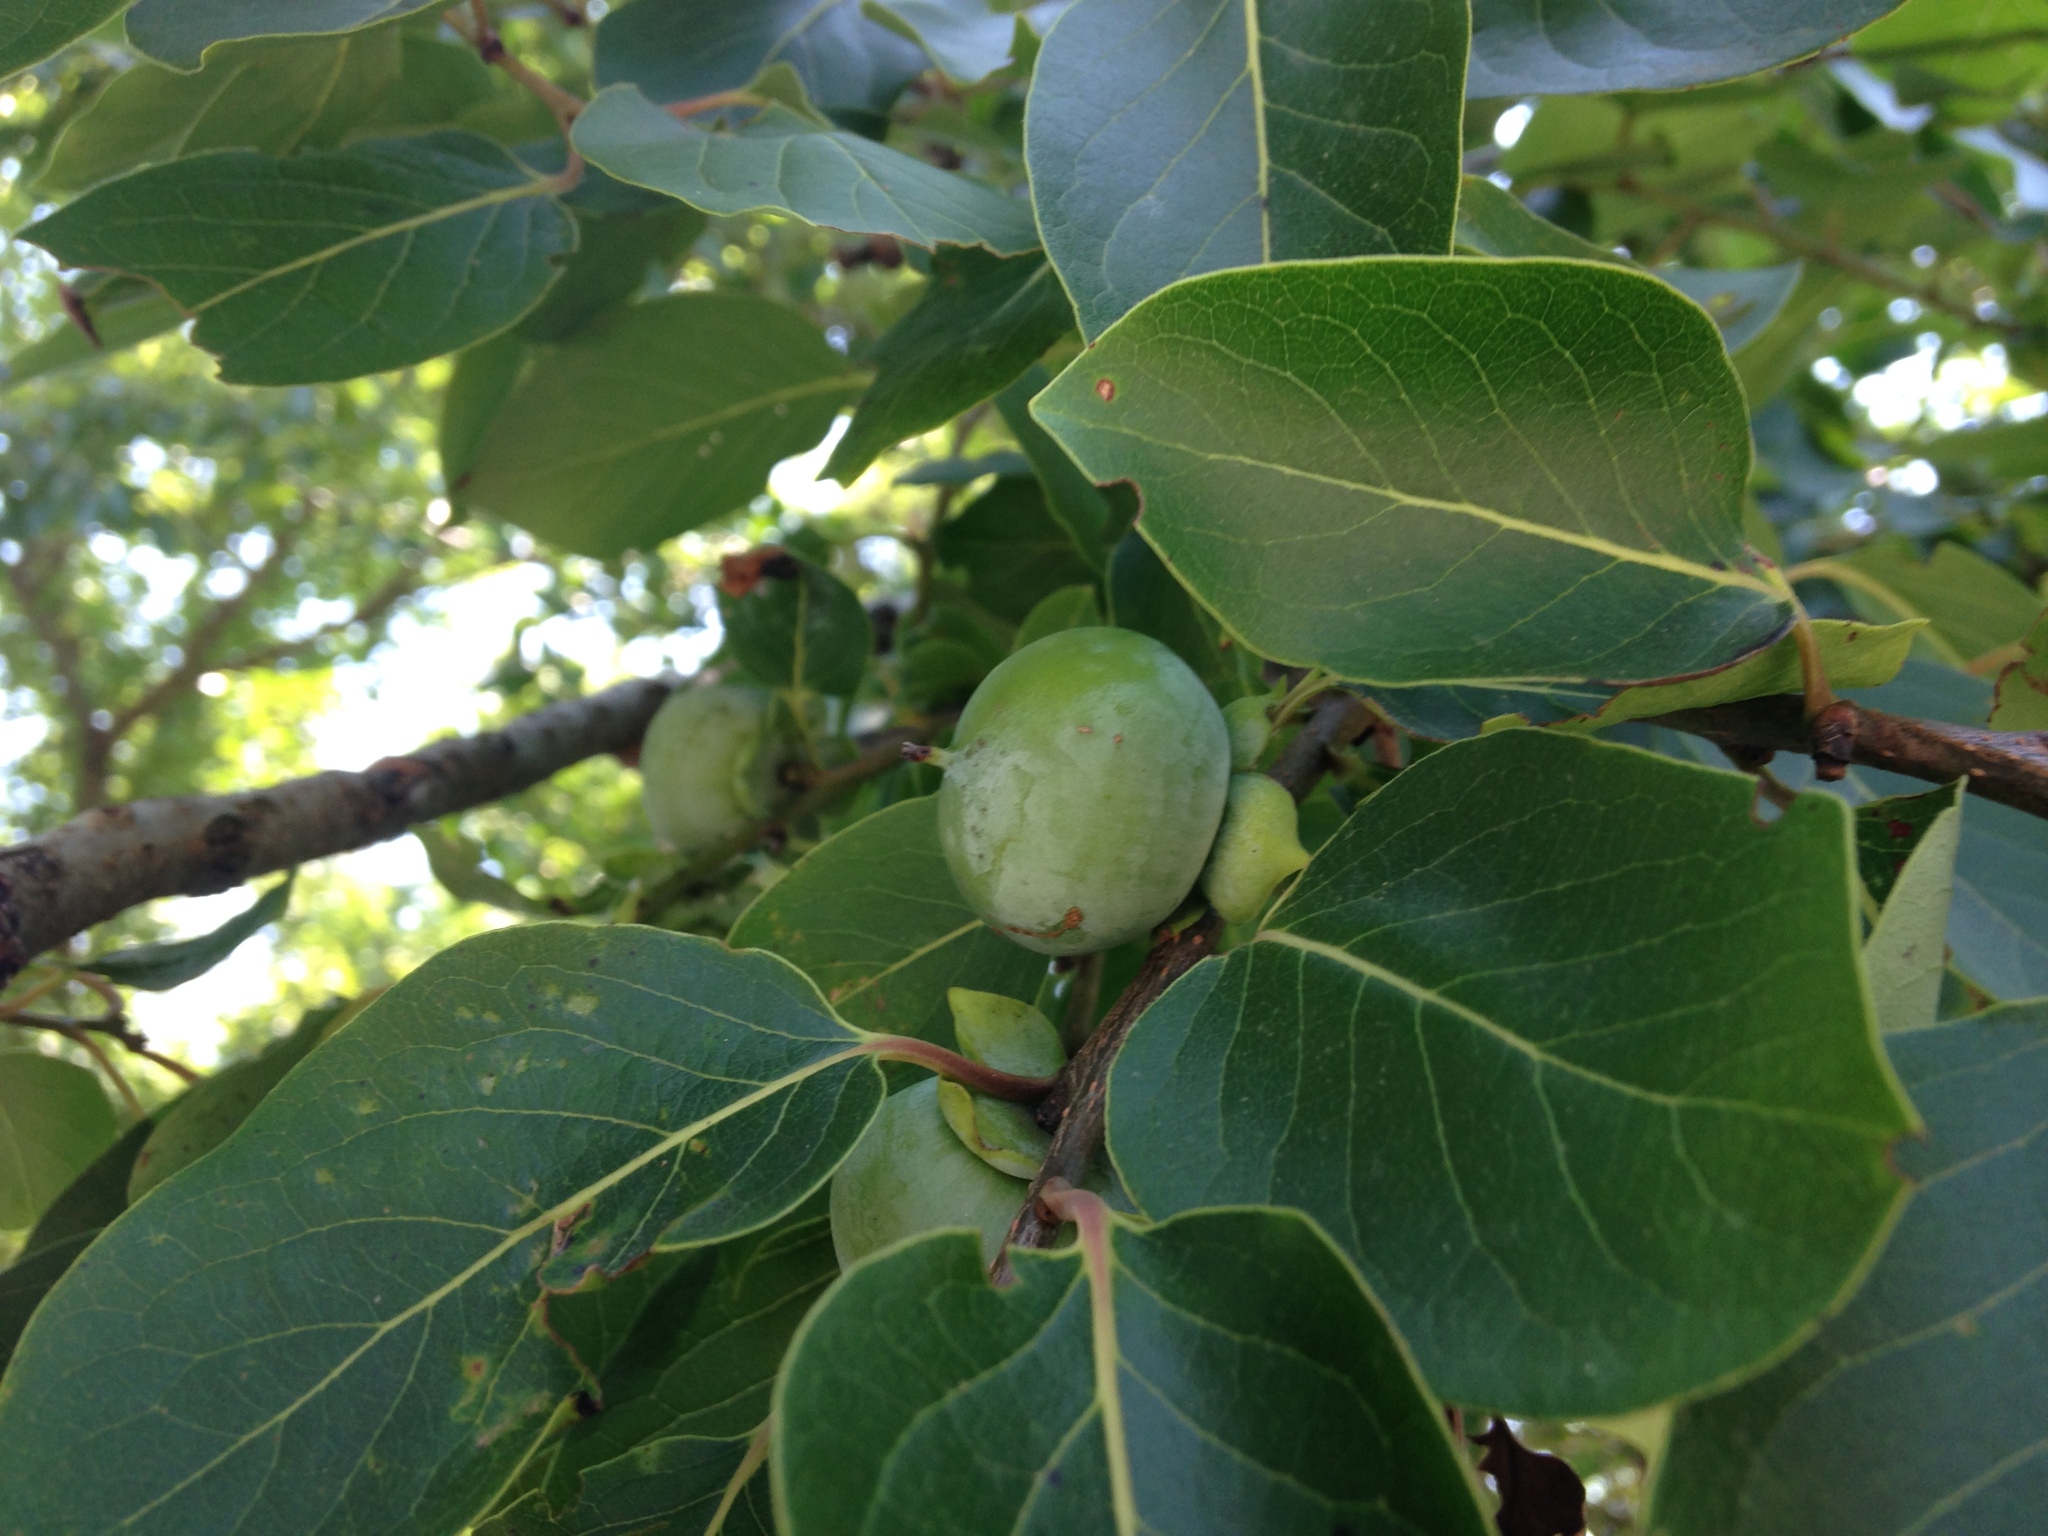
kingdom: Plantae
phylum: Tracheophyta
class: Magnoliopsida
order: Ericales
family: Ebenaceae
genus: Diospyros
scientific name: Diospyros virginiana
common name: Persimmon
